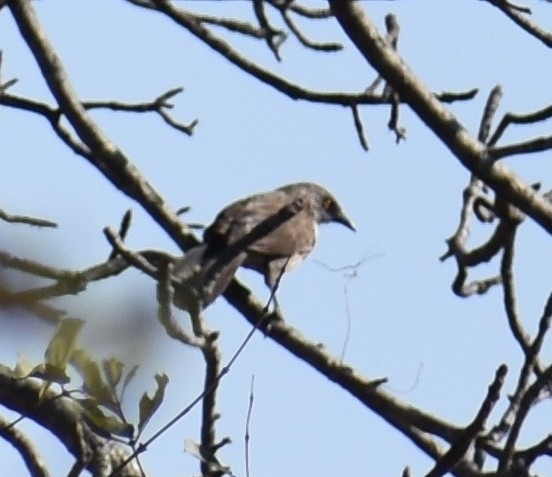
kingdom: Animalia
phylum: Chordata
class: Aves
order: Passeriformes
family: Leiothrichidae
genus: Turdoides
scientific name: Turdoides jardineii
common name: Arrow-marked babbler
